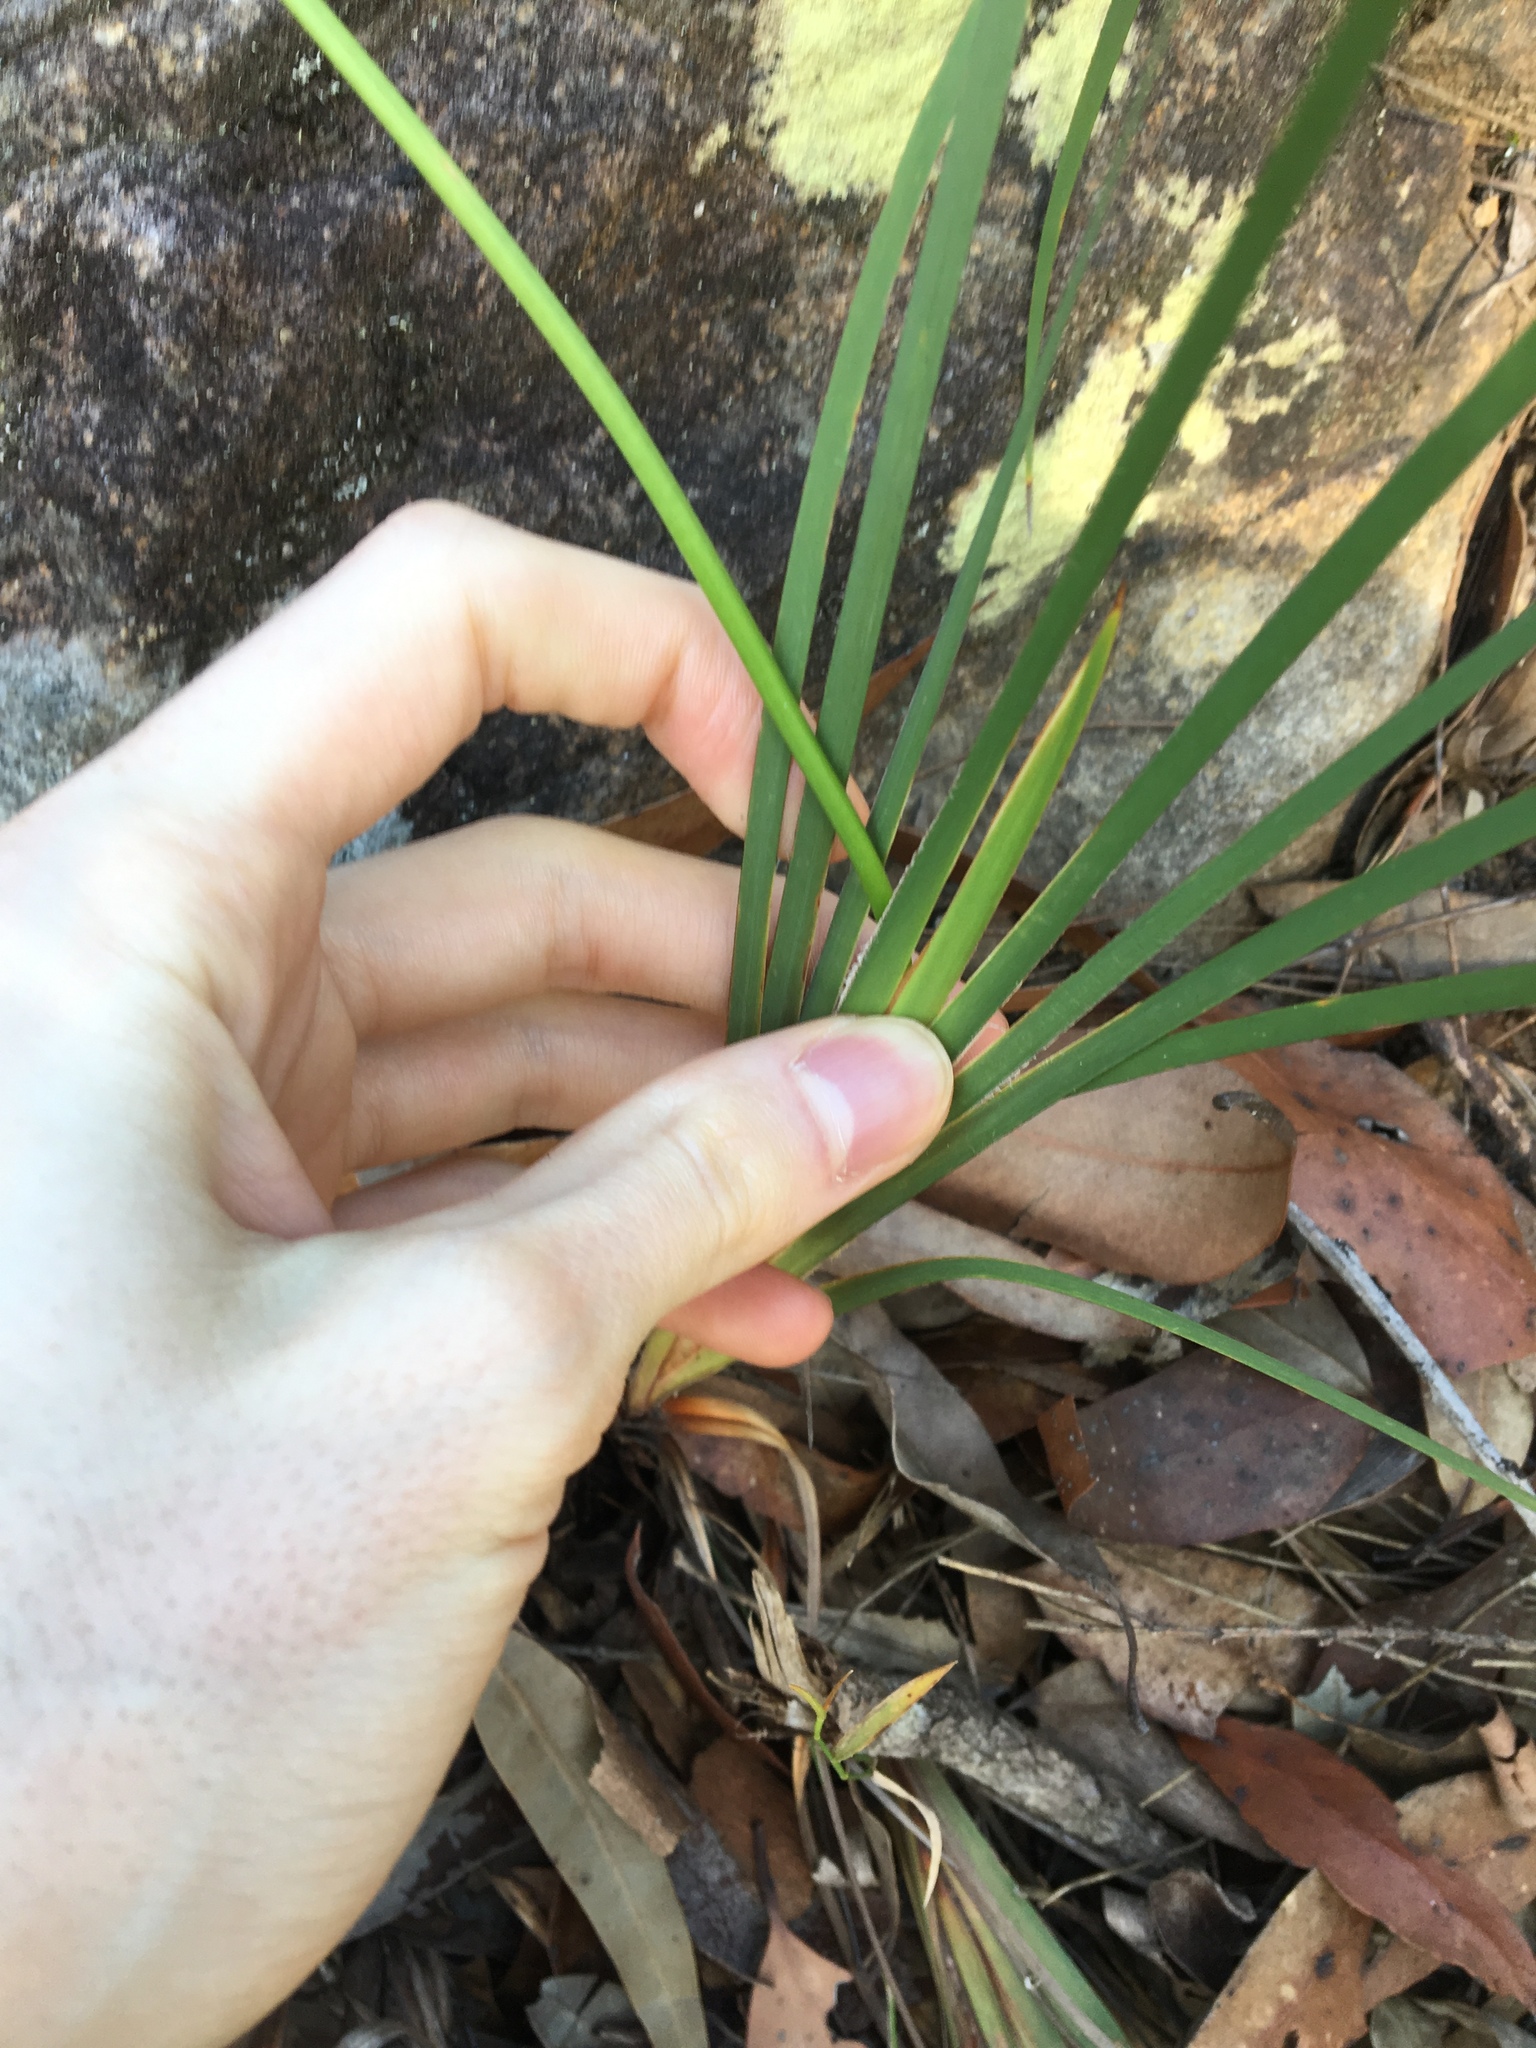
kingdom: Plantae
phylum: Tracheophyta
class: Liliopsida
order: Asparagales
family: Iridaceae
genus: Patersonia
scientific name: Patersonia glabrata
